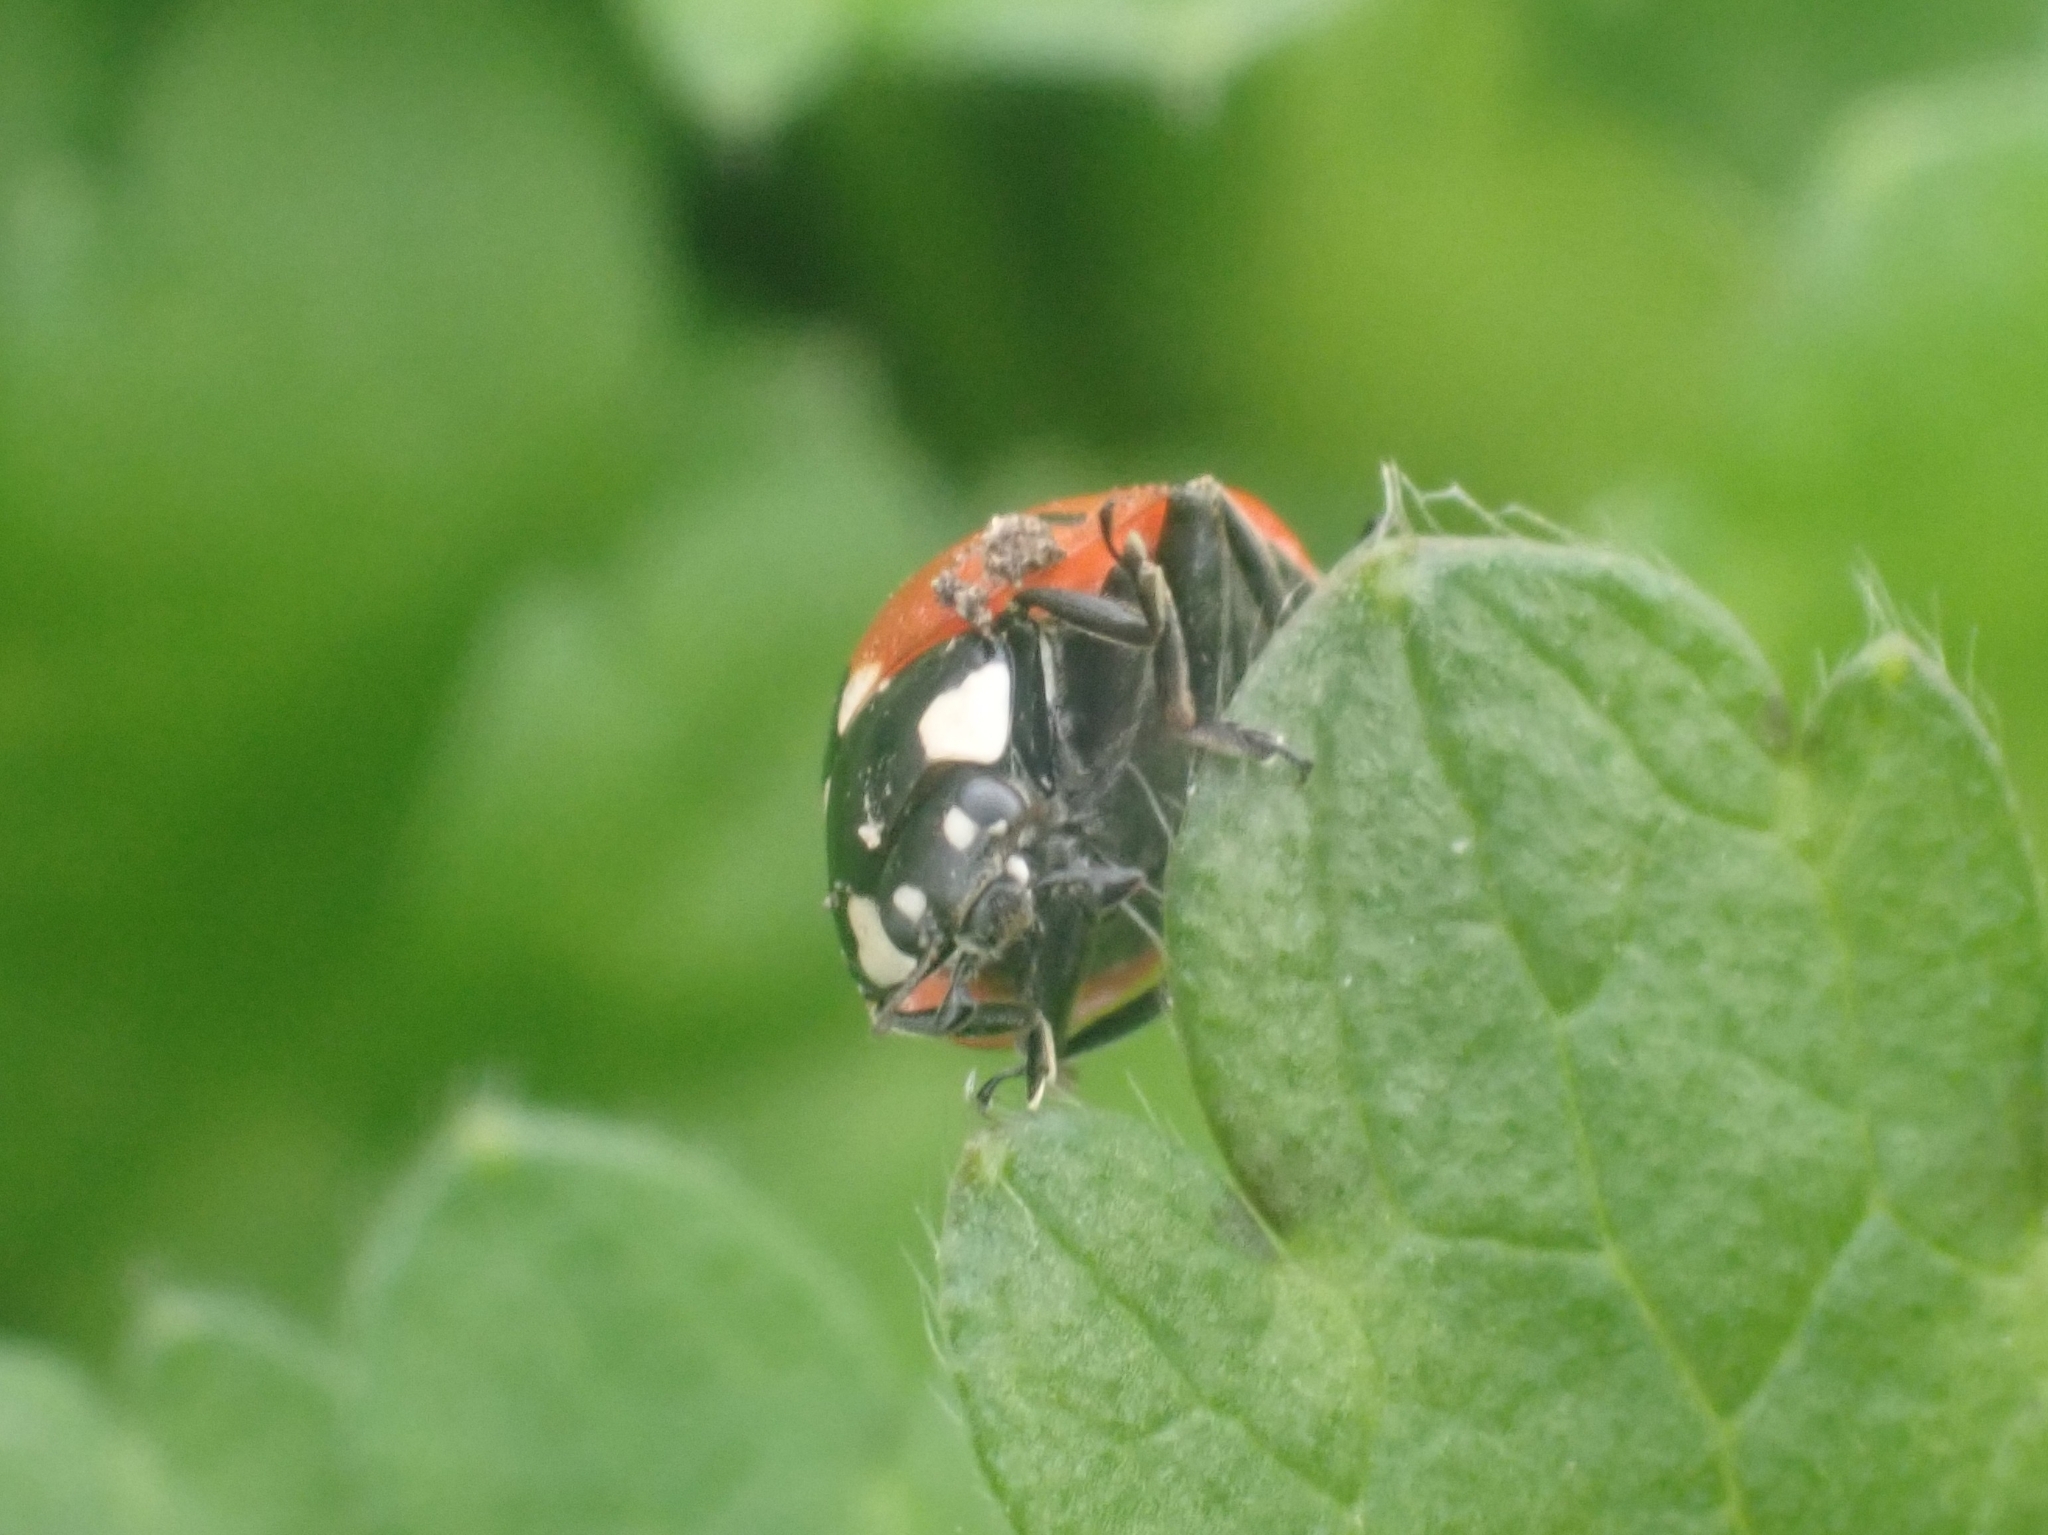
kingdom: Animalia
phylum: Arthropoda
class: Insecta
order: Coleoptera
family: Coccinellidae
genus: Coccinella
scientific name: Coccinella septempunctata
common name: Sevenspotted lady beetle
